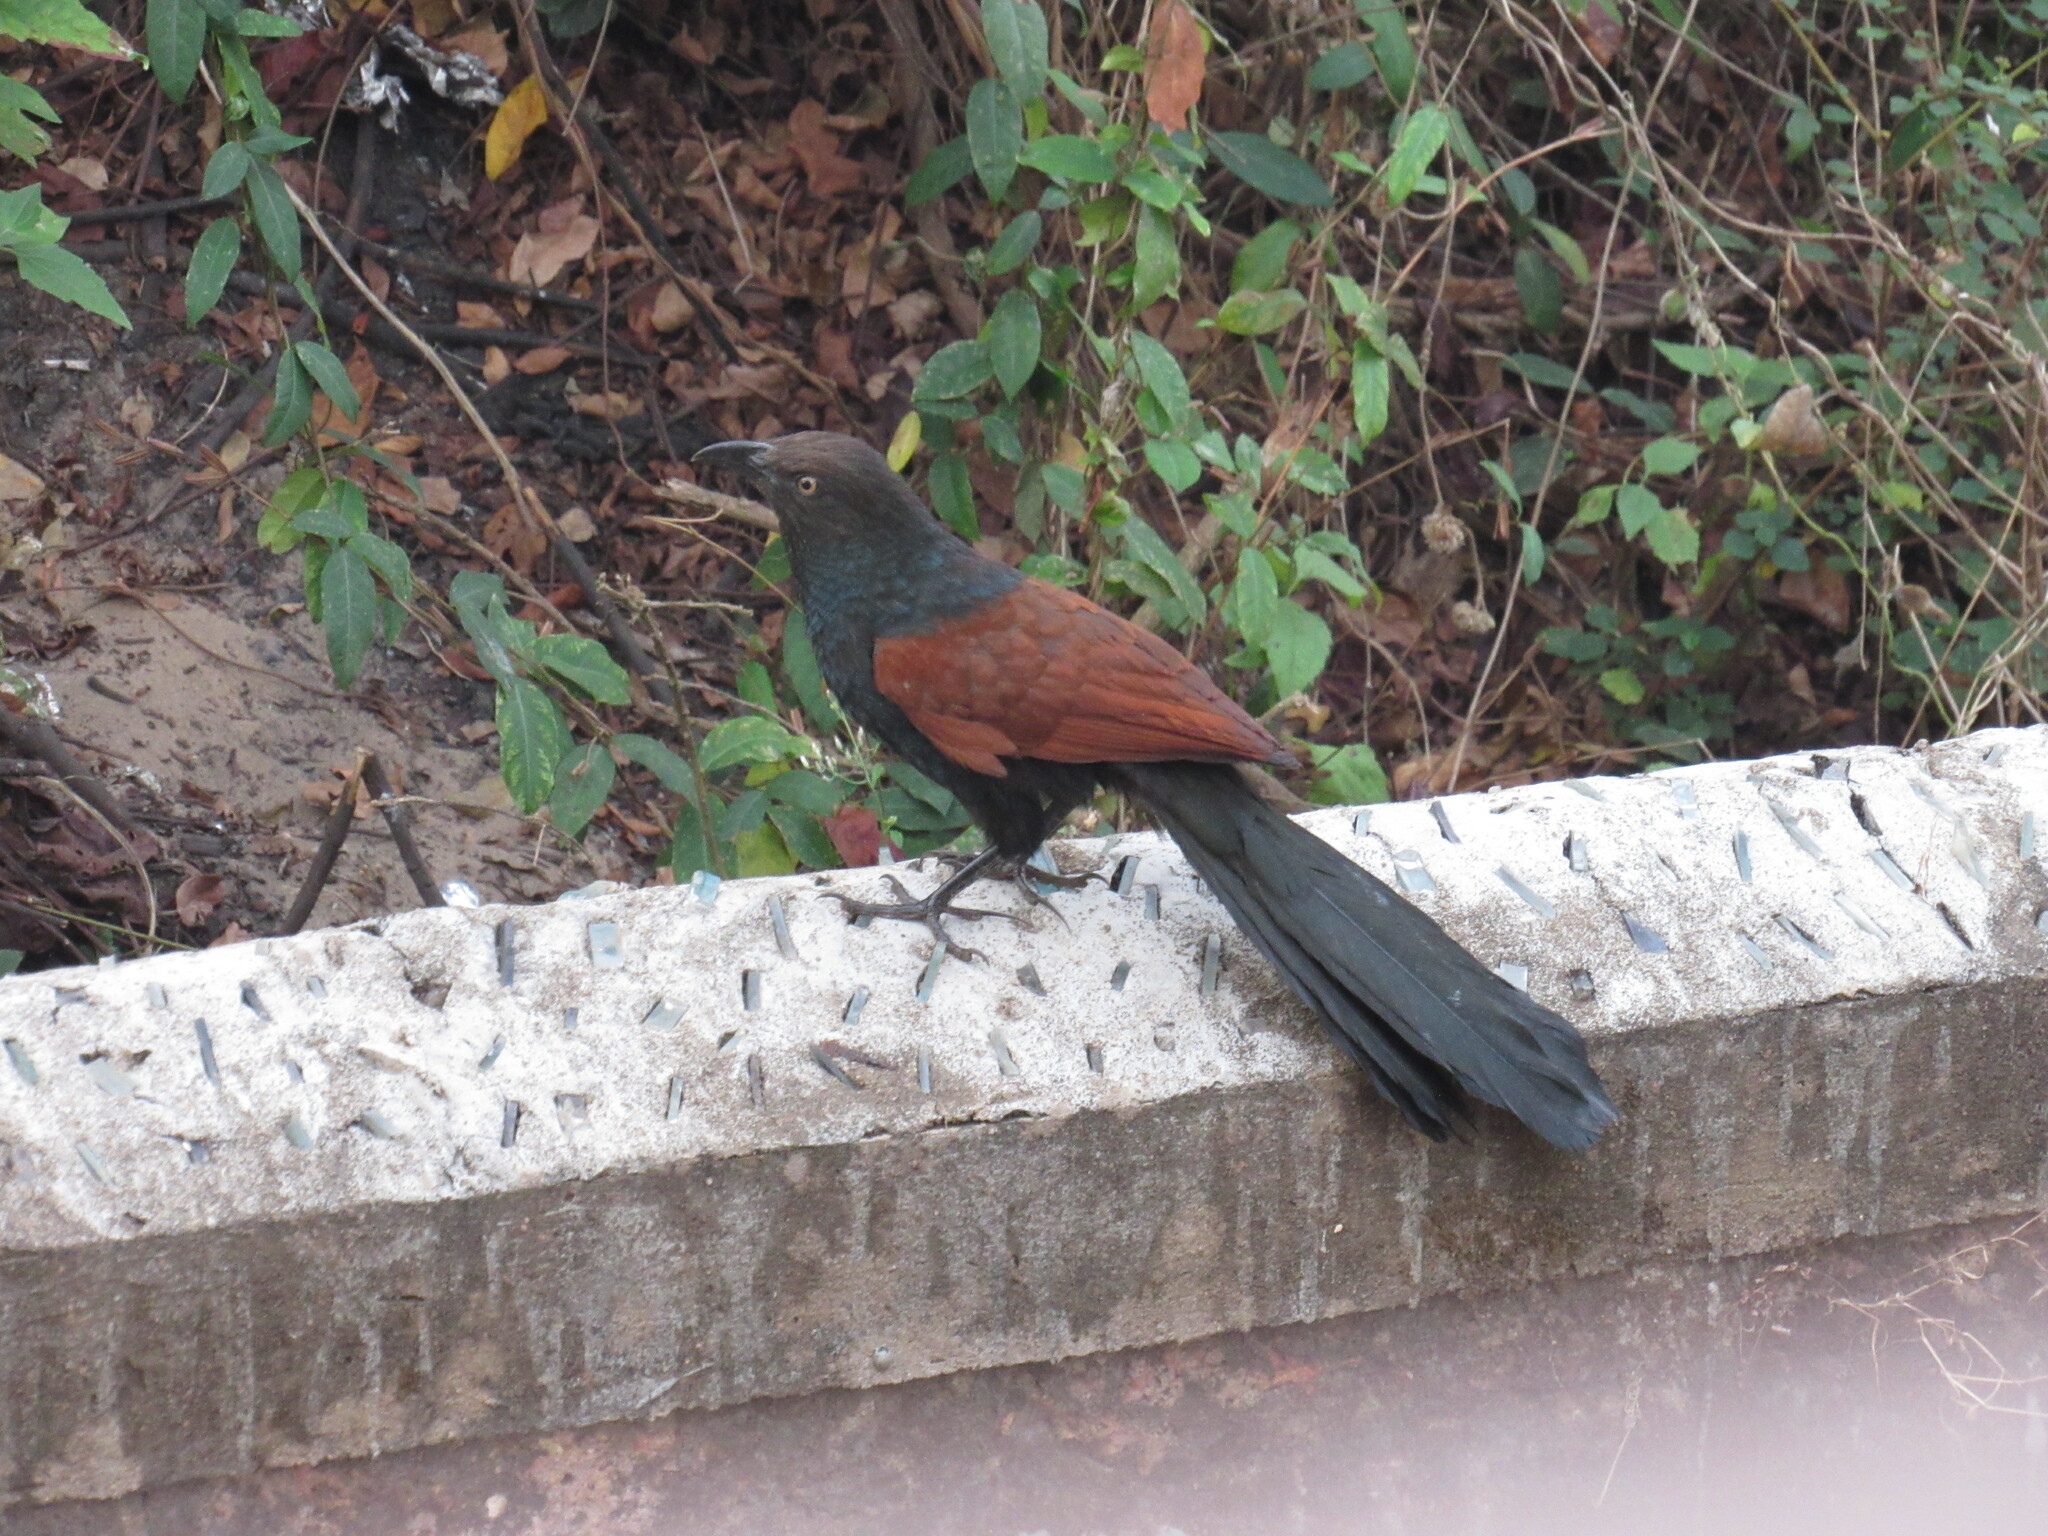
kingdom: Animalia
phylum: Chordata
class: Aves
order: Cuculiformes
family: Cuculidae
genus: Centropus
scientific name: Centropus sinensis
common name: Greater coucal
